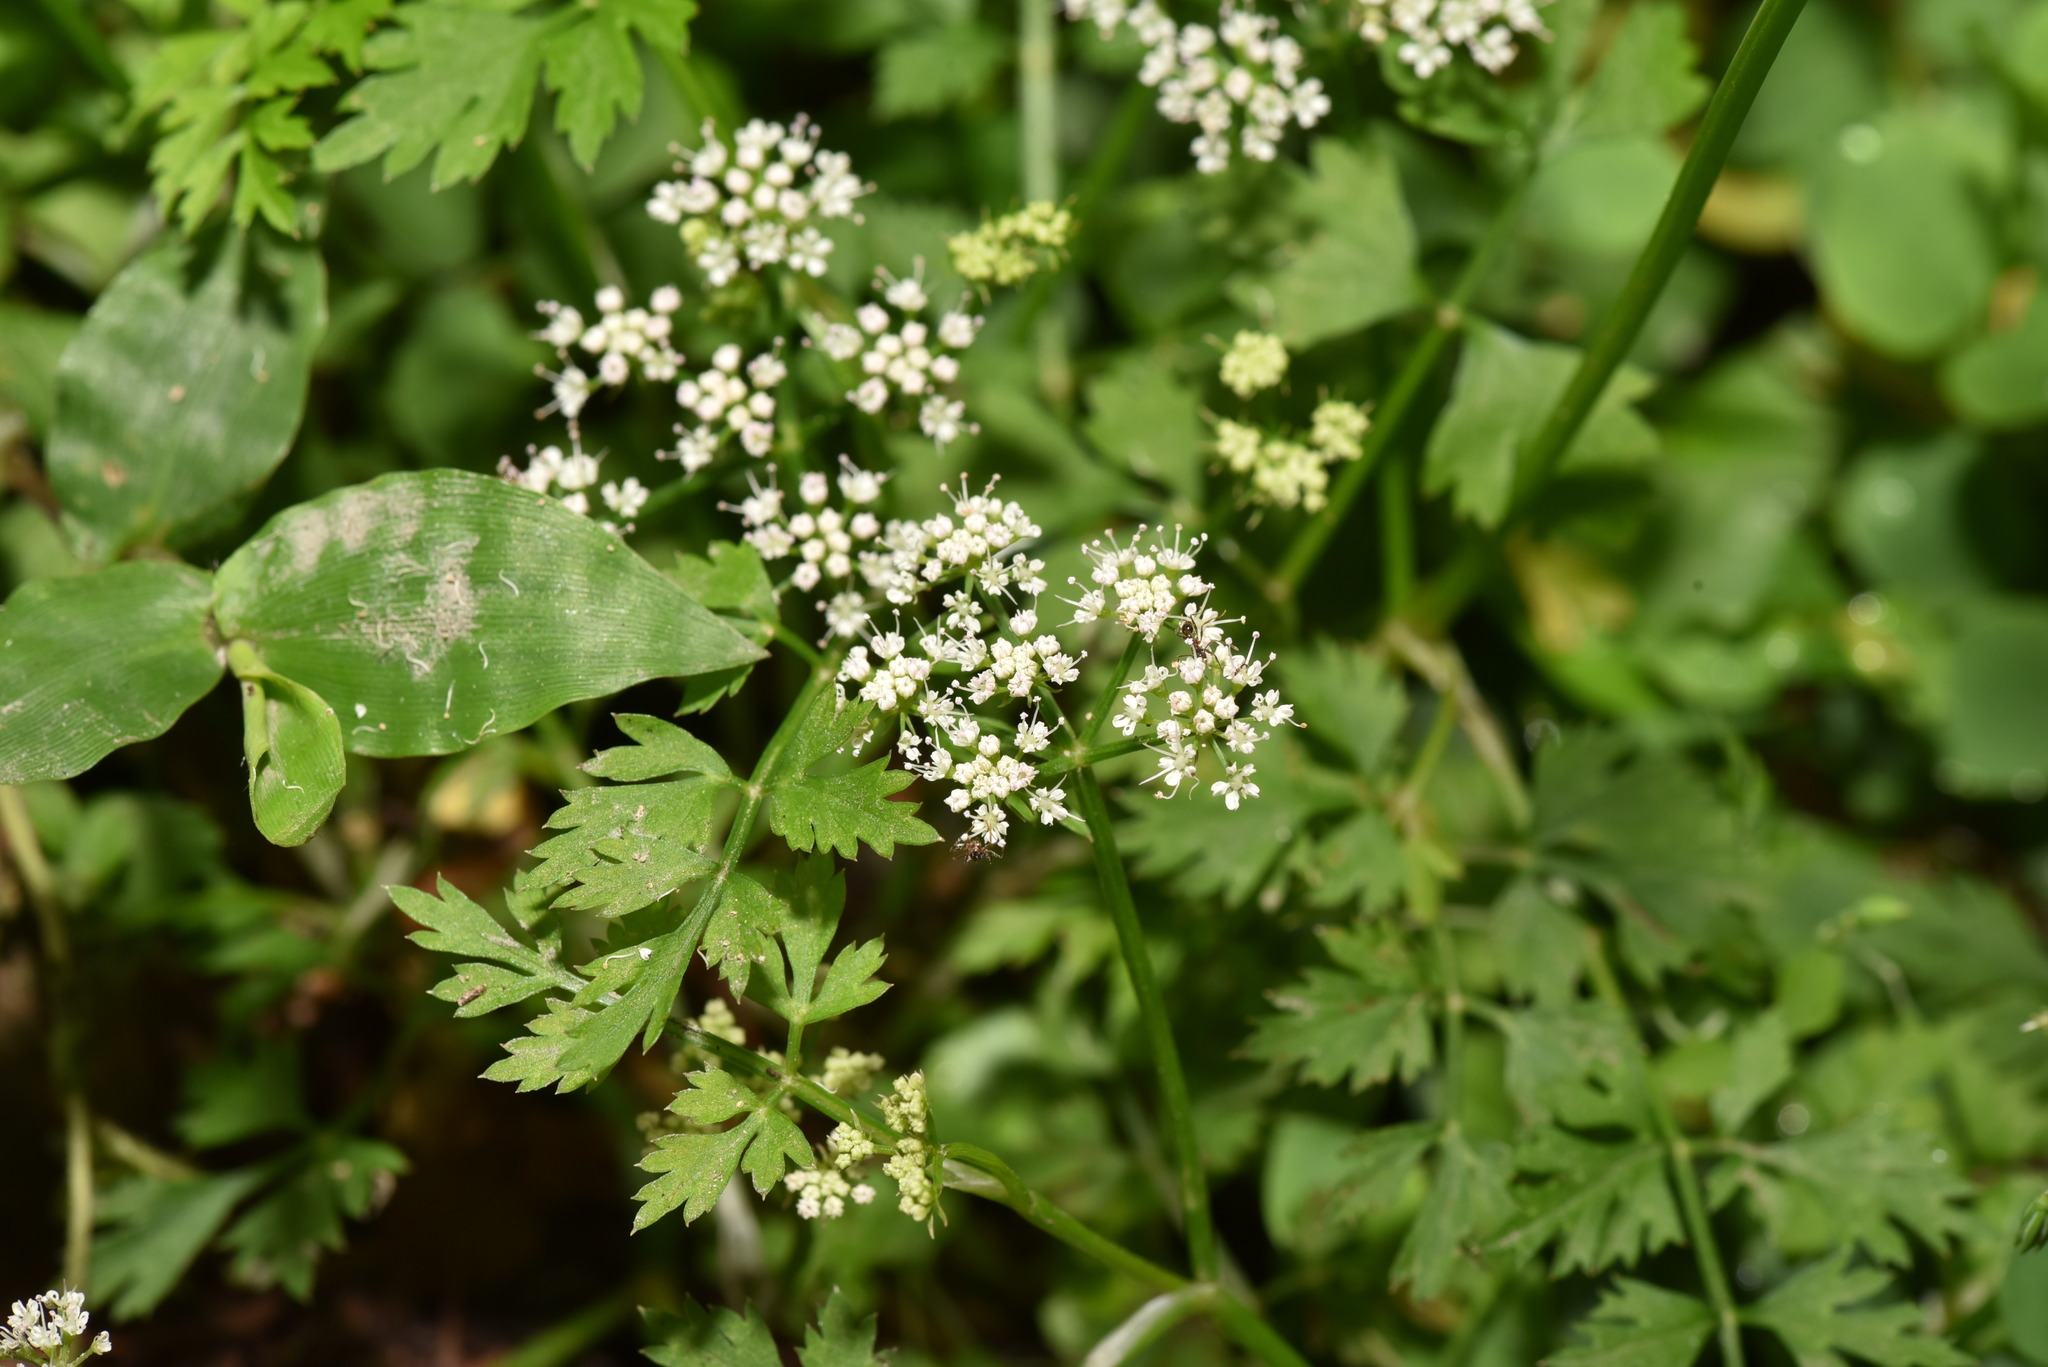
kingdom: Plantae
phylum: Tracheophyta
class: Magnoliopsida
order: Apiales
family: Apiaceae
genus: Oenanthe
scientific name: Oenanthe javanica
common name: Java water-dropwort
